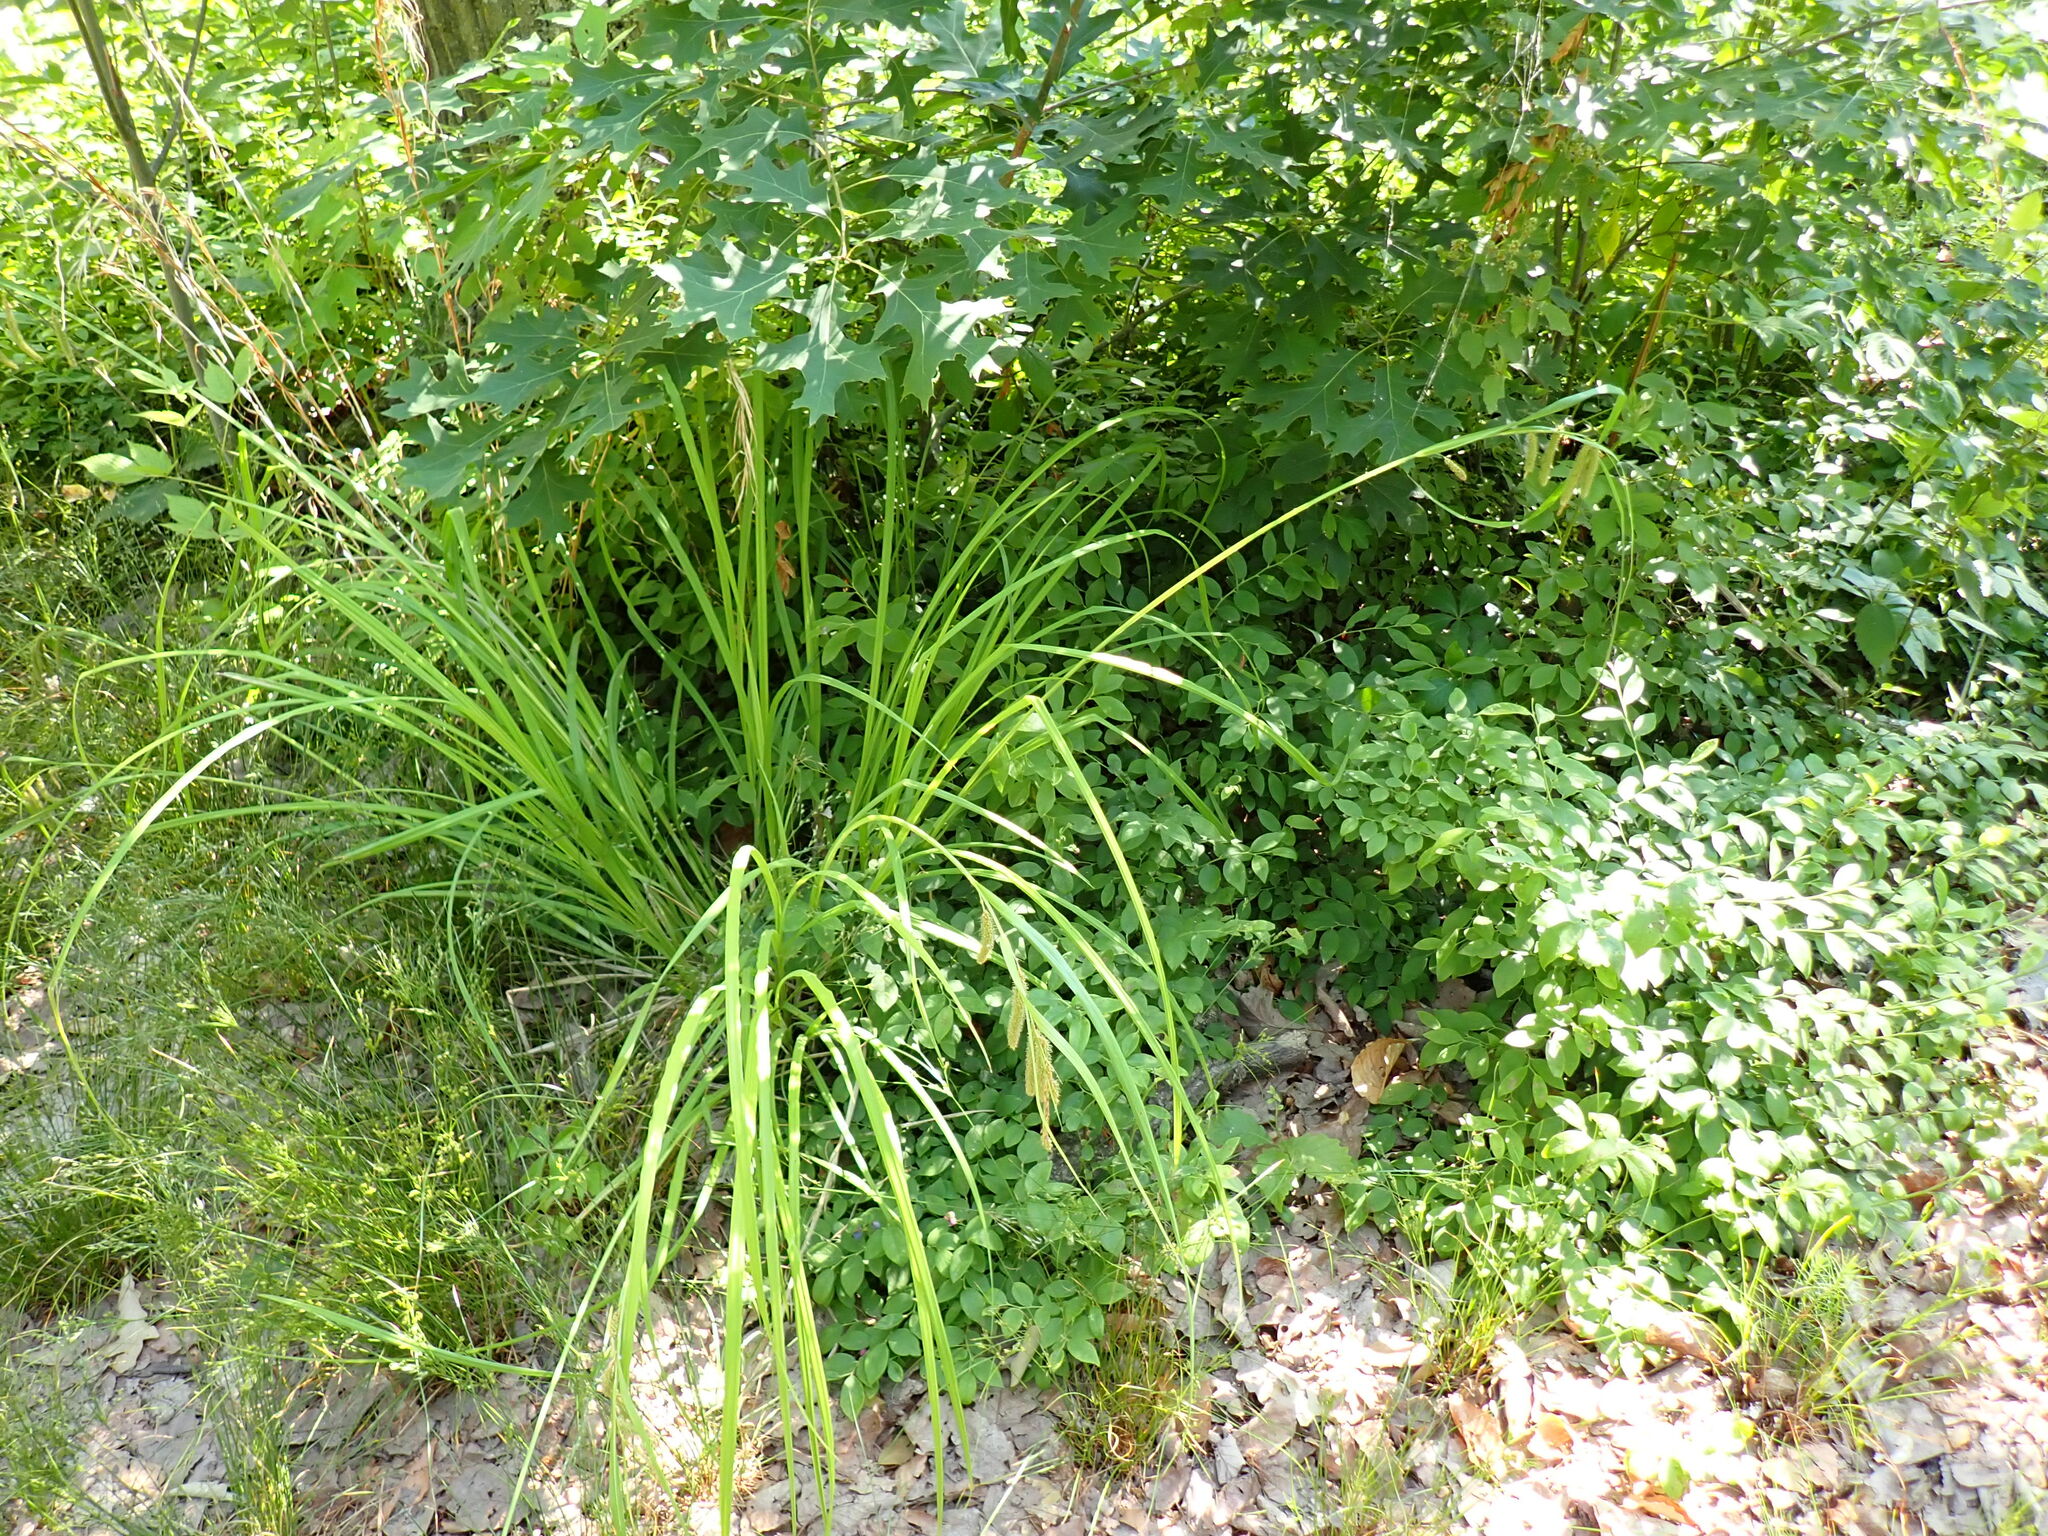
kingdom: Plantae
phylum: Tracheophyta
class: Liliopsida
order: Poales
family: Cyperaceae
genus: Carex
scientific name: Carex crinita
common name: Fringed sedge
